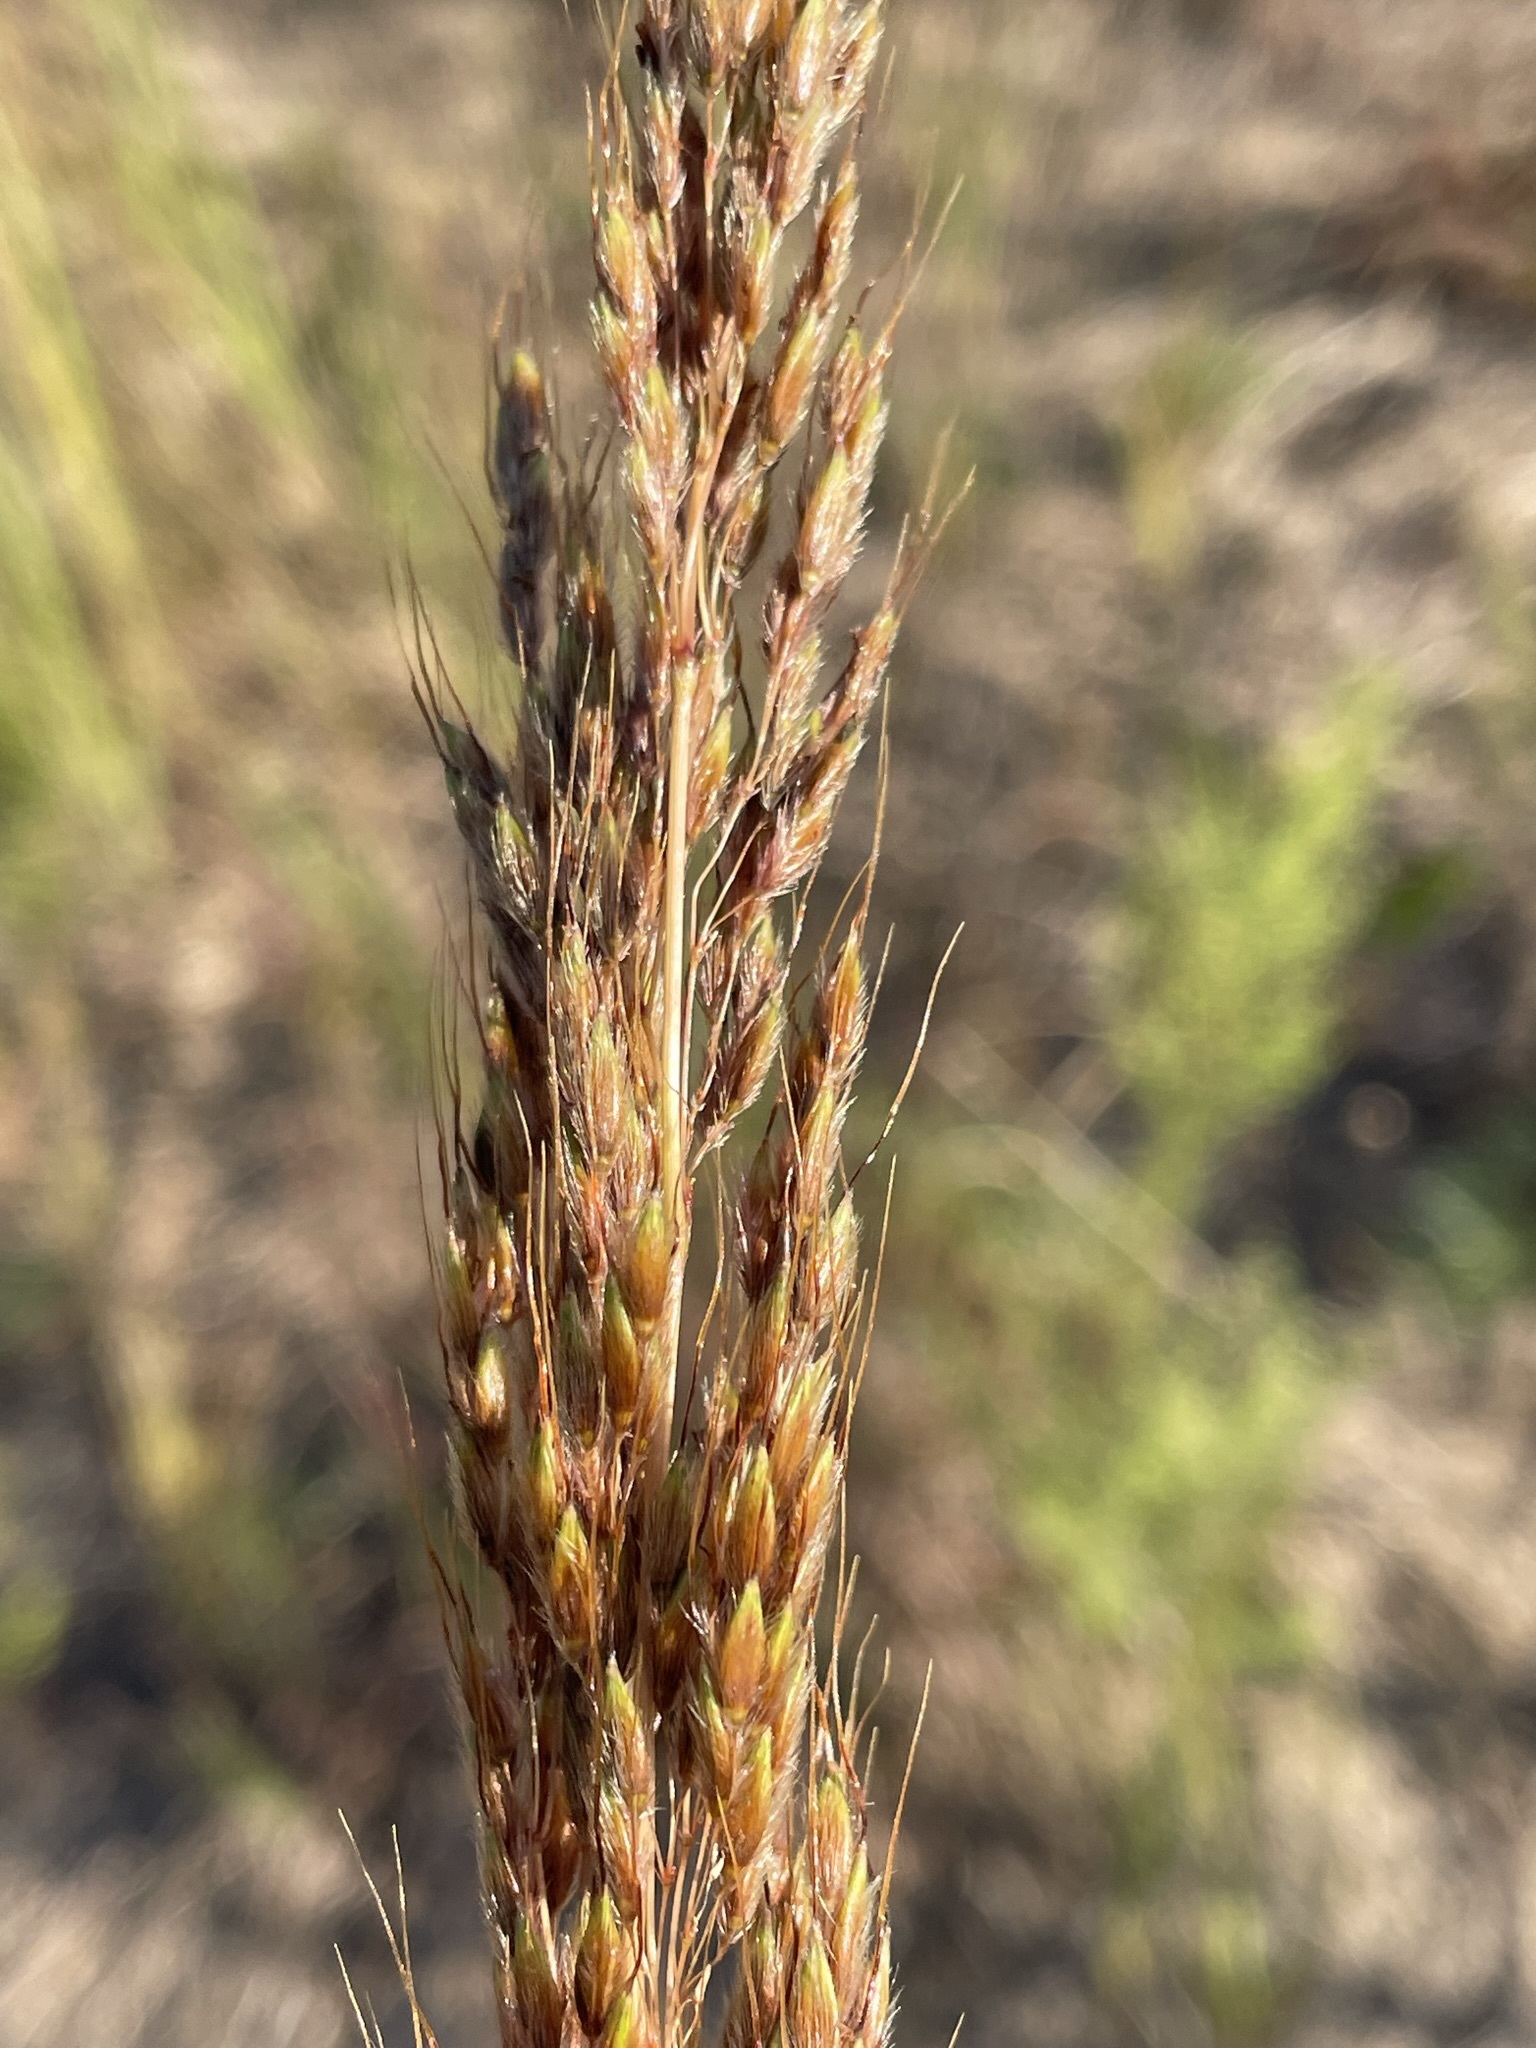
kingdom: Plantae
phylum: Tracheophyta
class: Liliopsida
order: Poales
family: Poaceae
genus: Sorghastrum
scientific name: Sorghastrum nutans
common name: Indian grass
